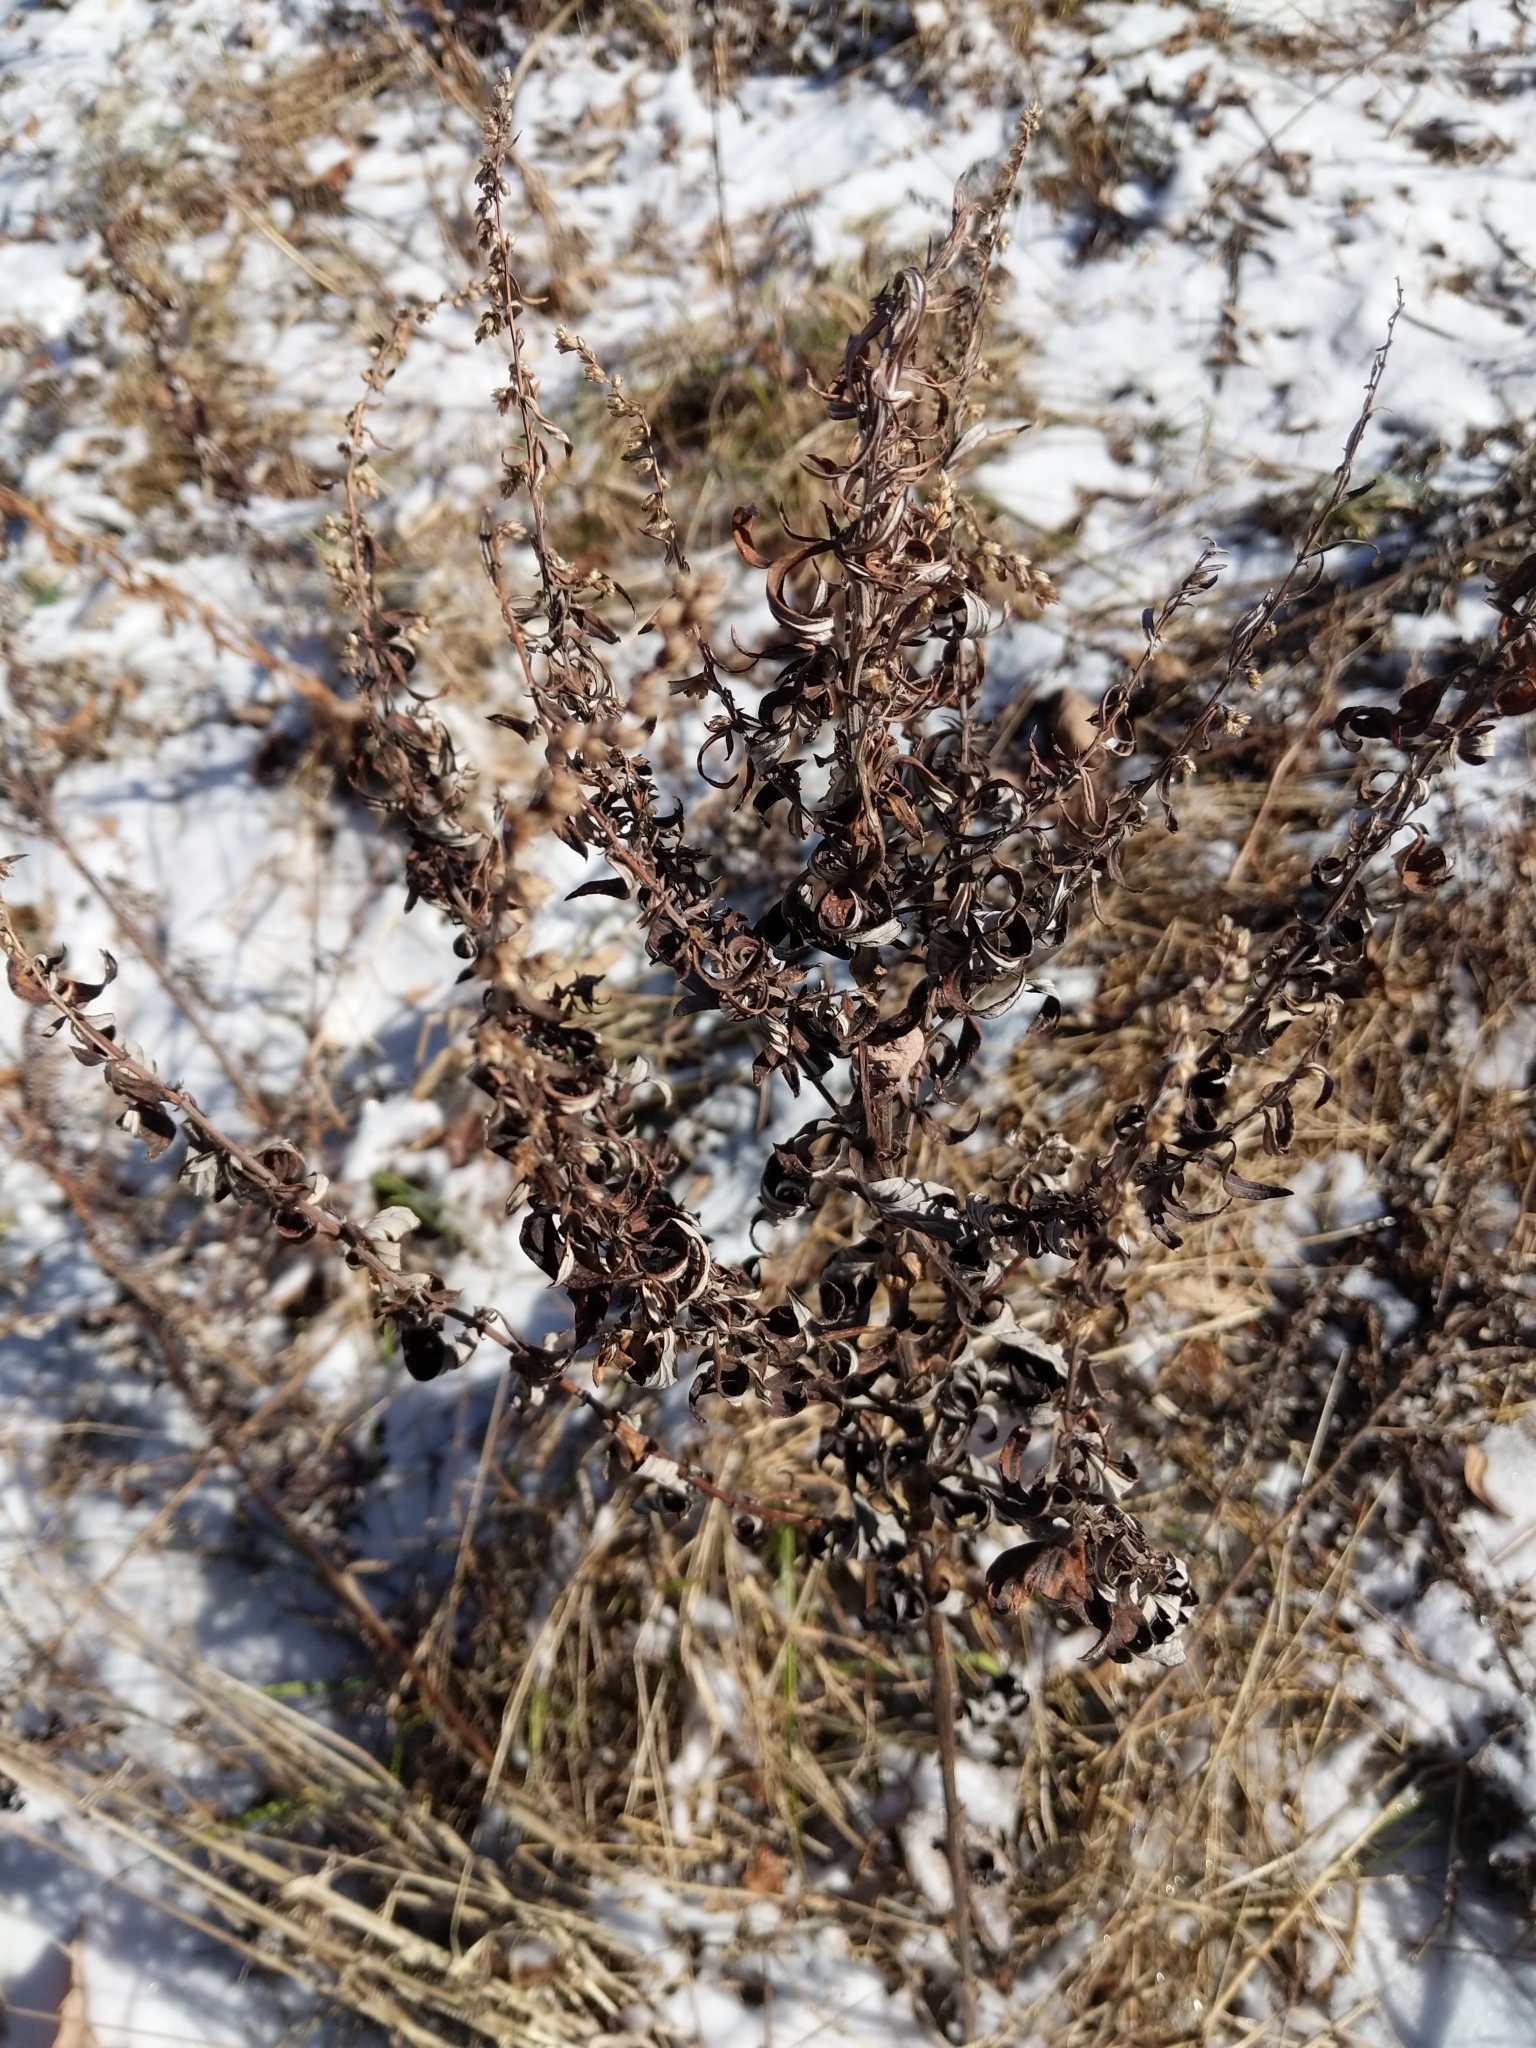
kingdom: Plantae
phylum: Tracheophyta
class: Magnoliopsida
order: Asterales
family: Asteraceae
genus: Artemisia
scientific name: Artemisia vulgaris
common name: Mugwort
